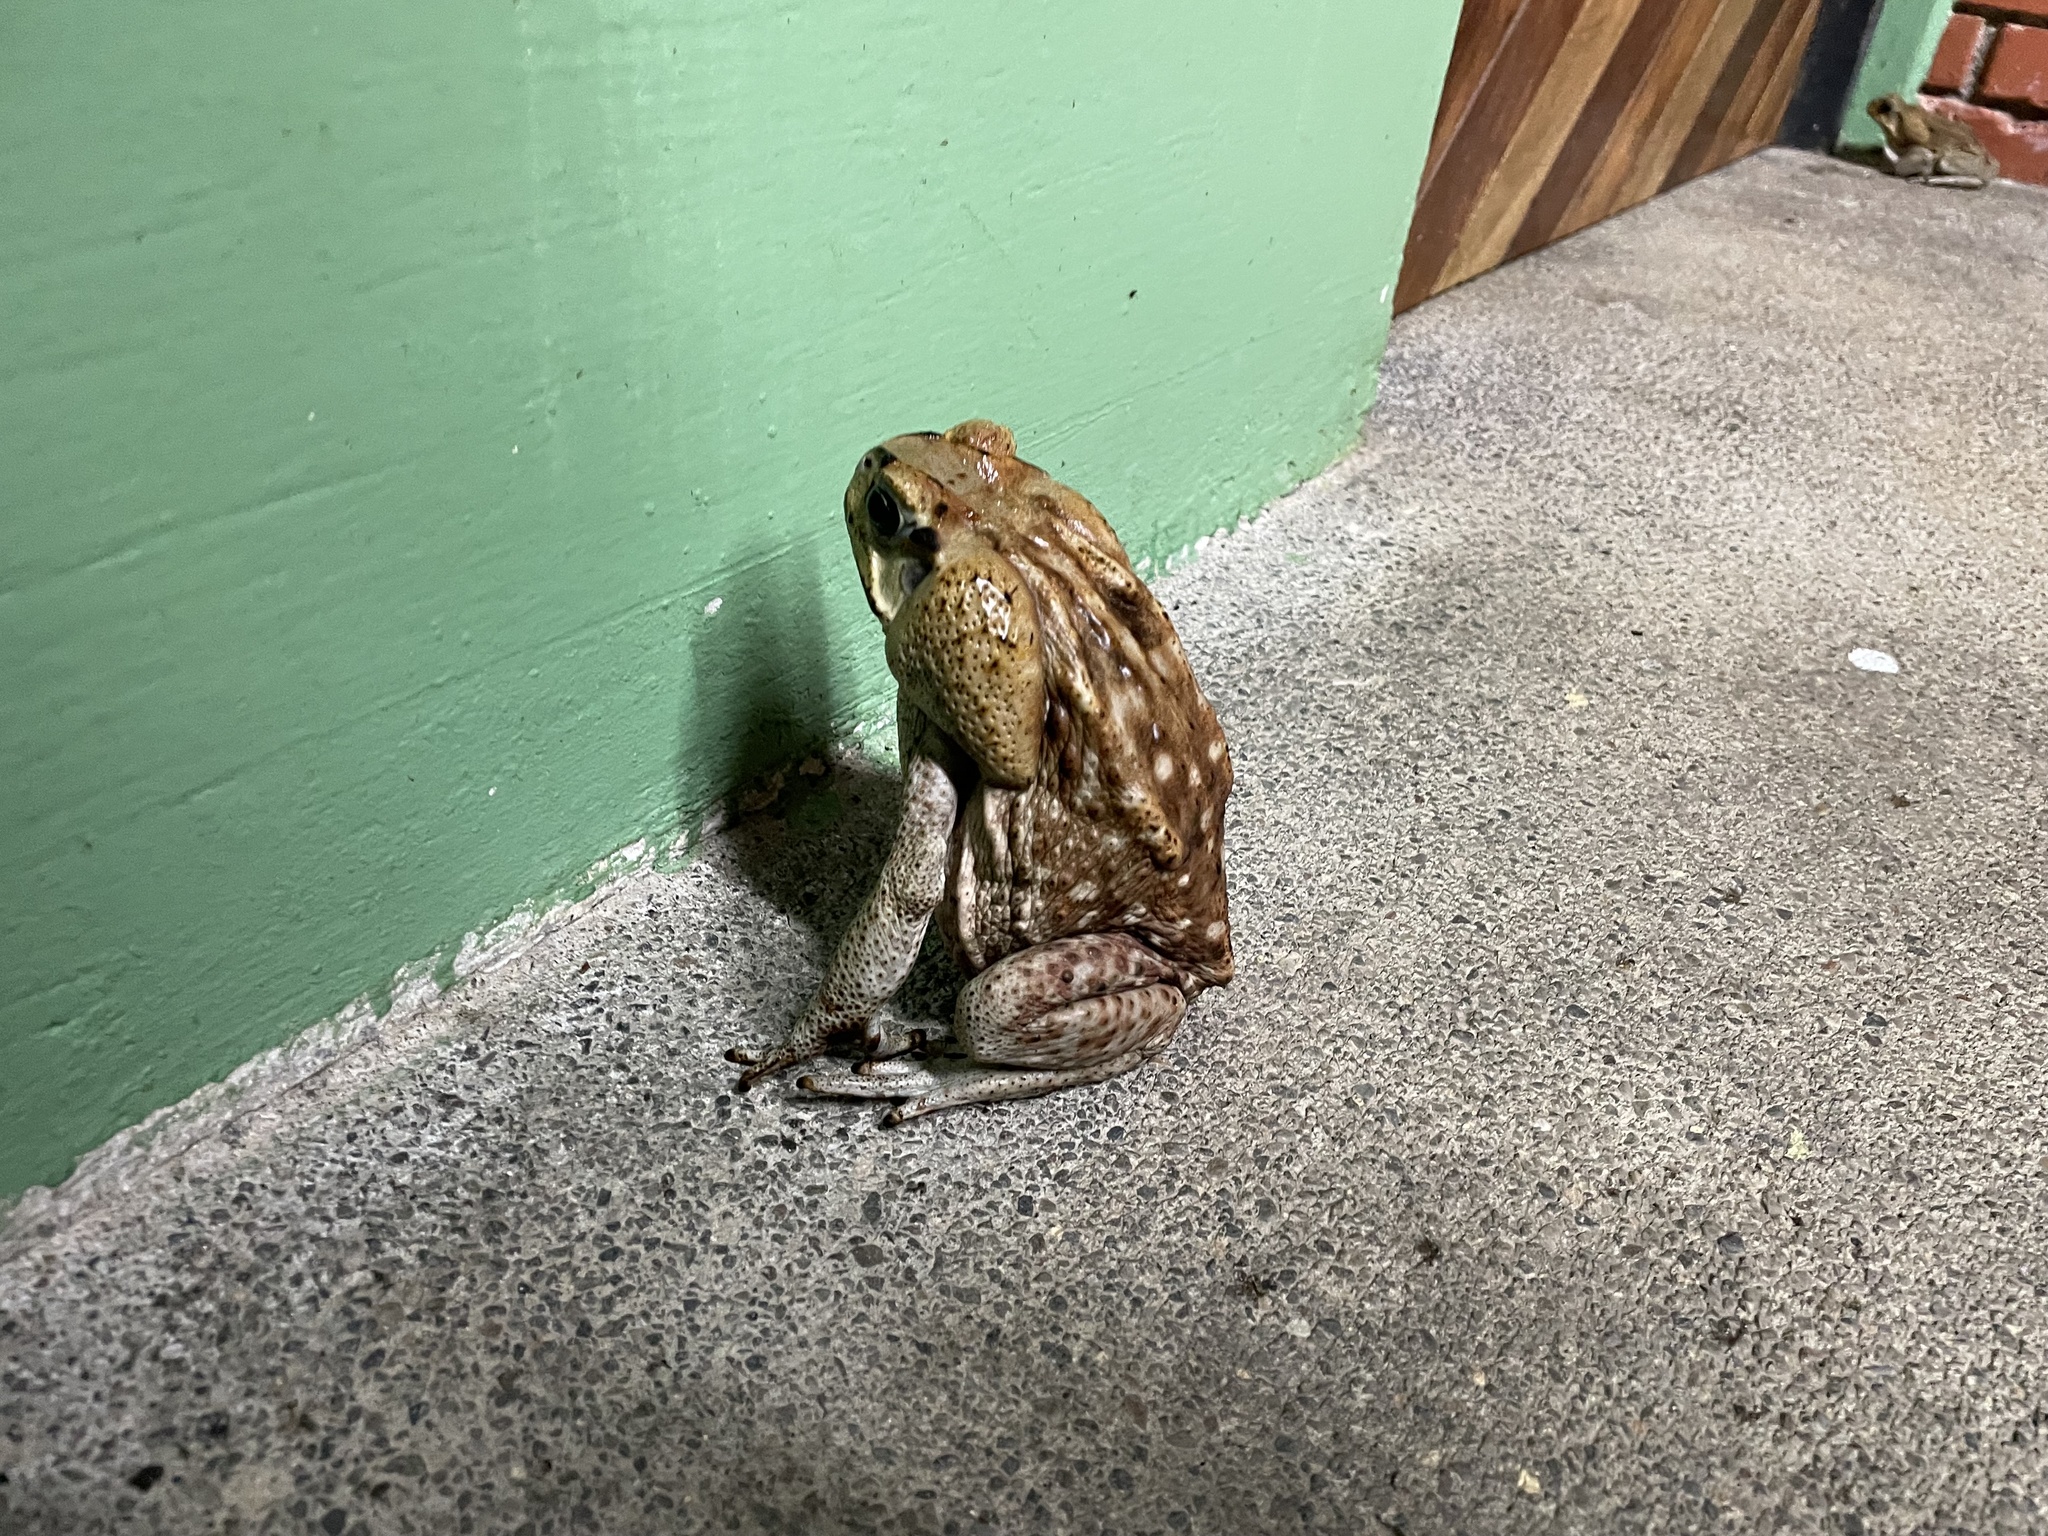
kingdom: Animalia
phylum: Chordata
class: Amphibia
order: Anura
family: Bufonidae
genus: Rhinella
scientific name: Rhinella horribilis
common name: Mesoamerican cane toad
